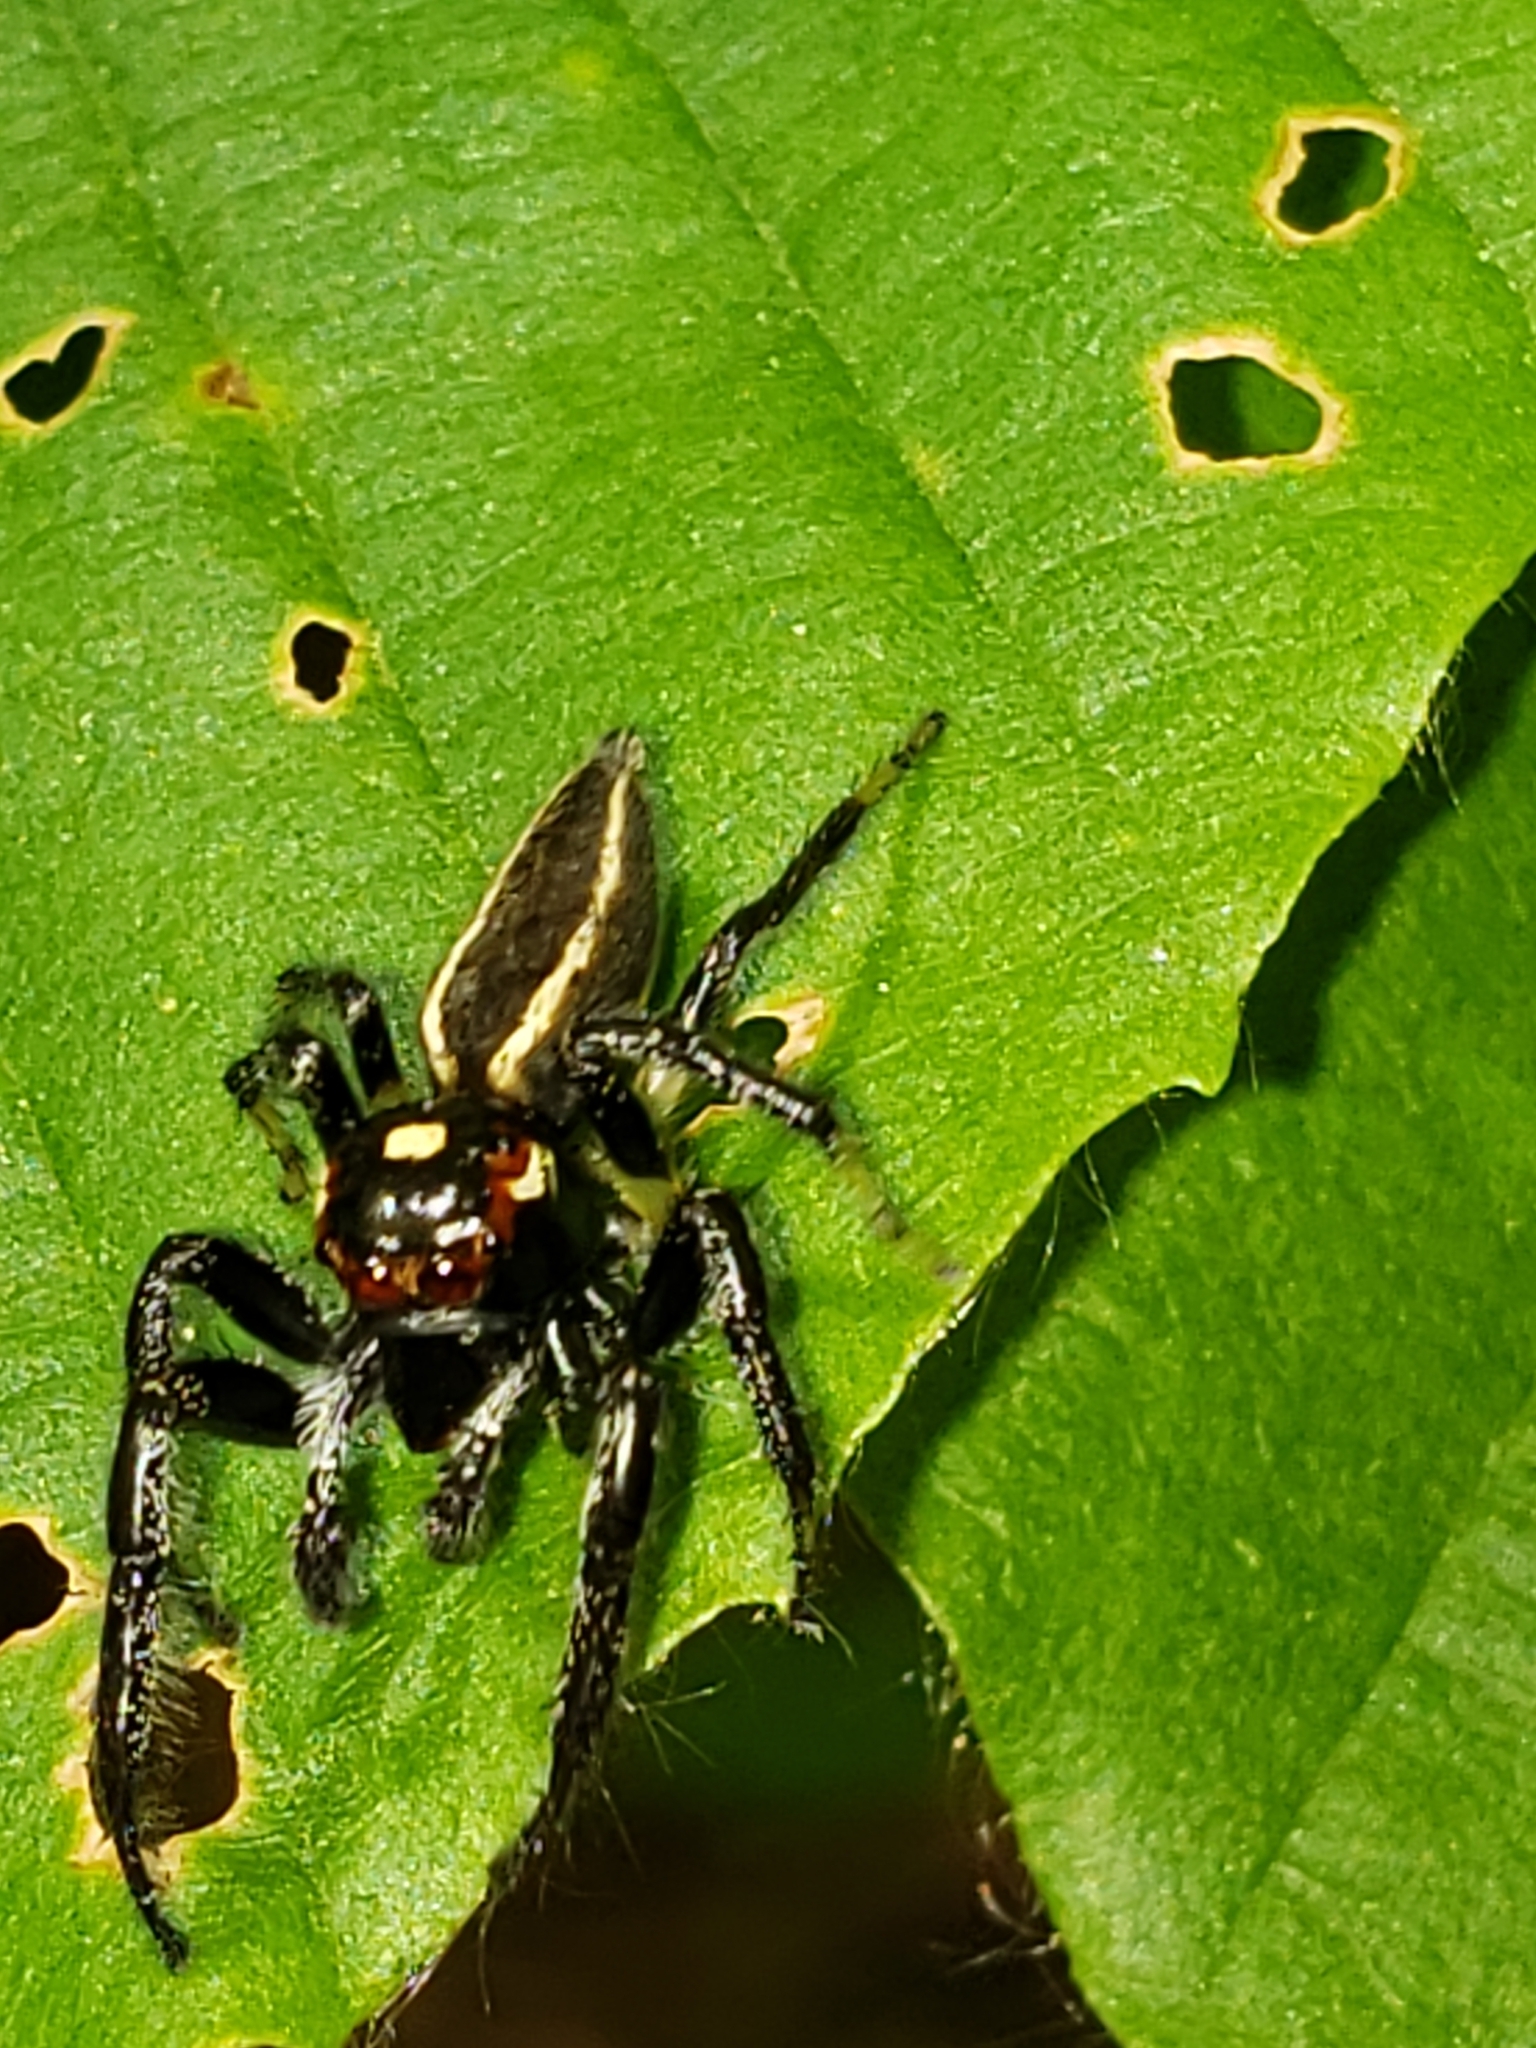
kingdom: Animalia
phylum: Arthropoda
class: Arachnida
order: Araneae
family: Salticidae
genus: Colonus
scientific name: Colonus sylvanus
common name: Jumping spiders
